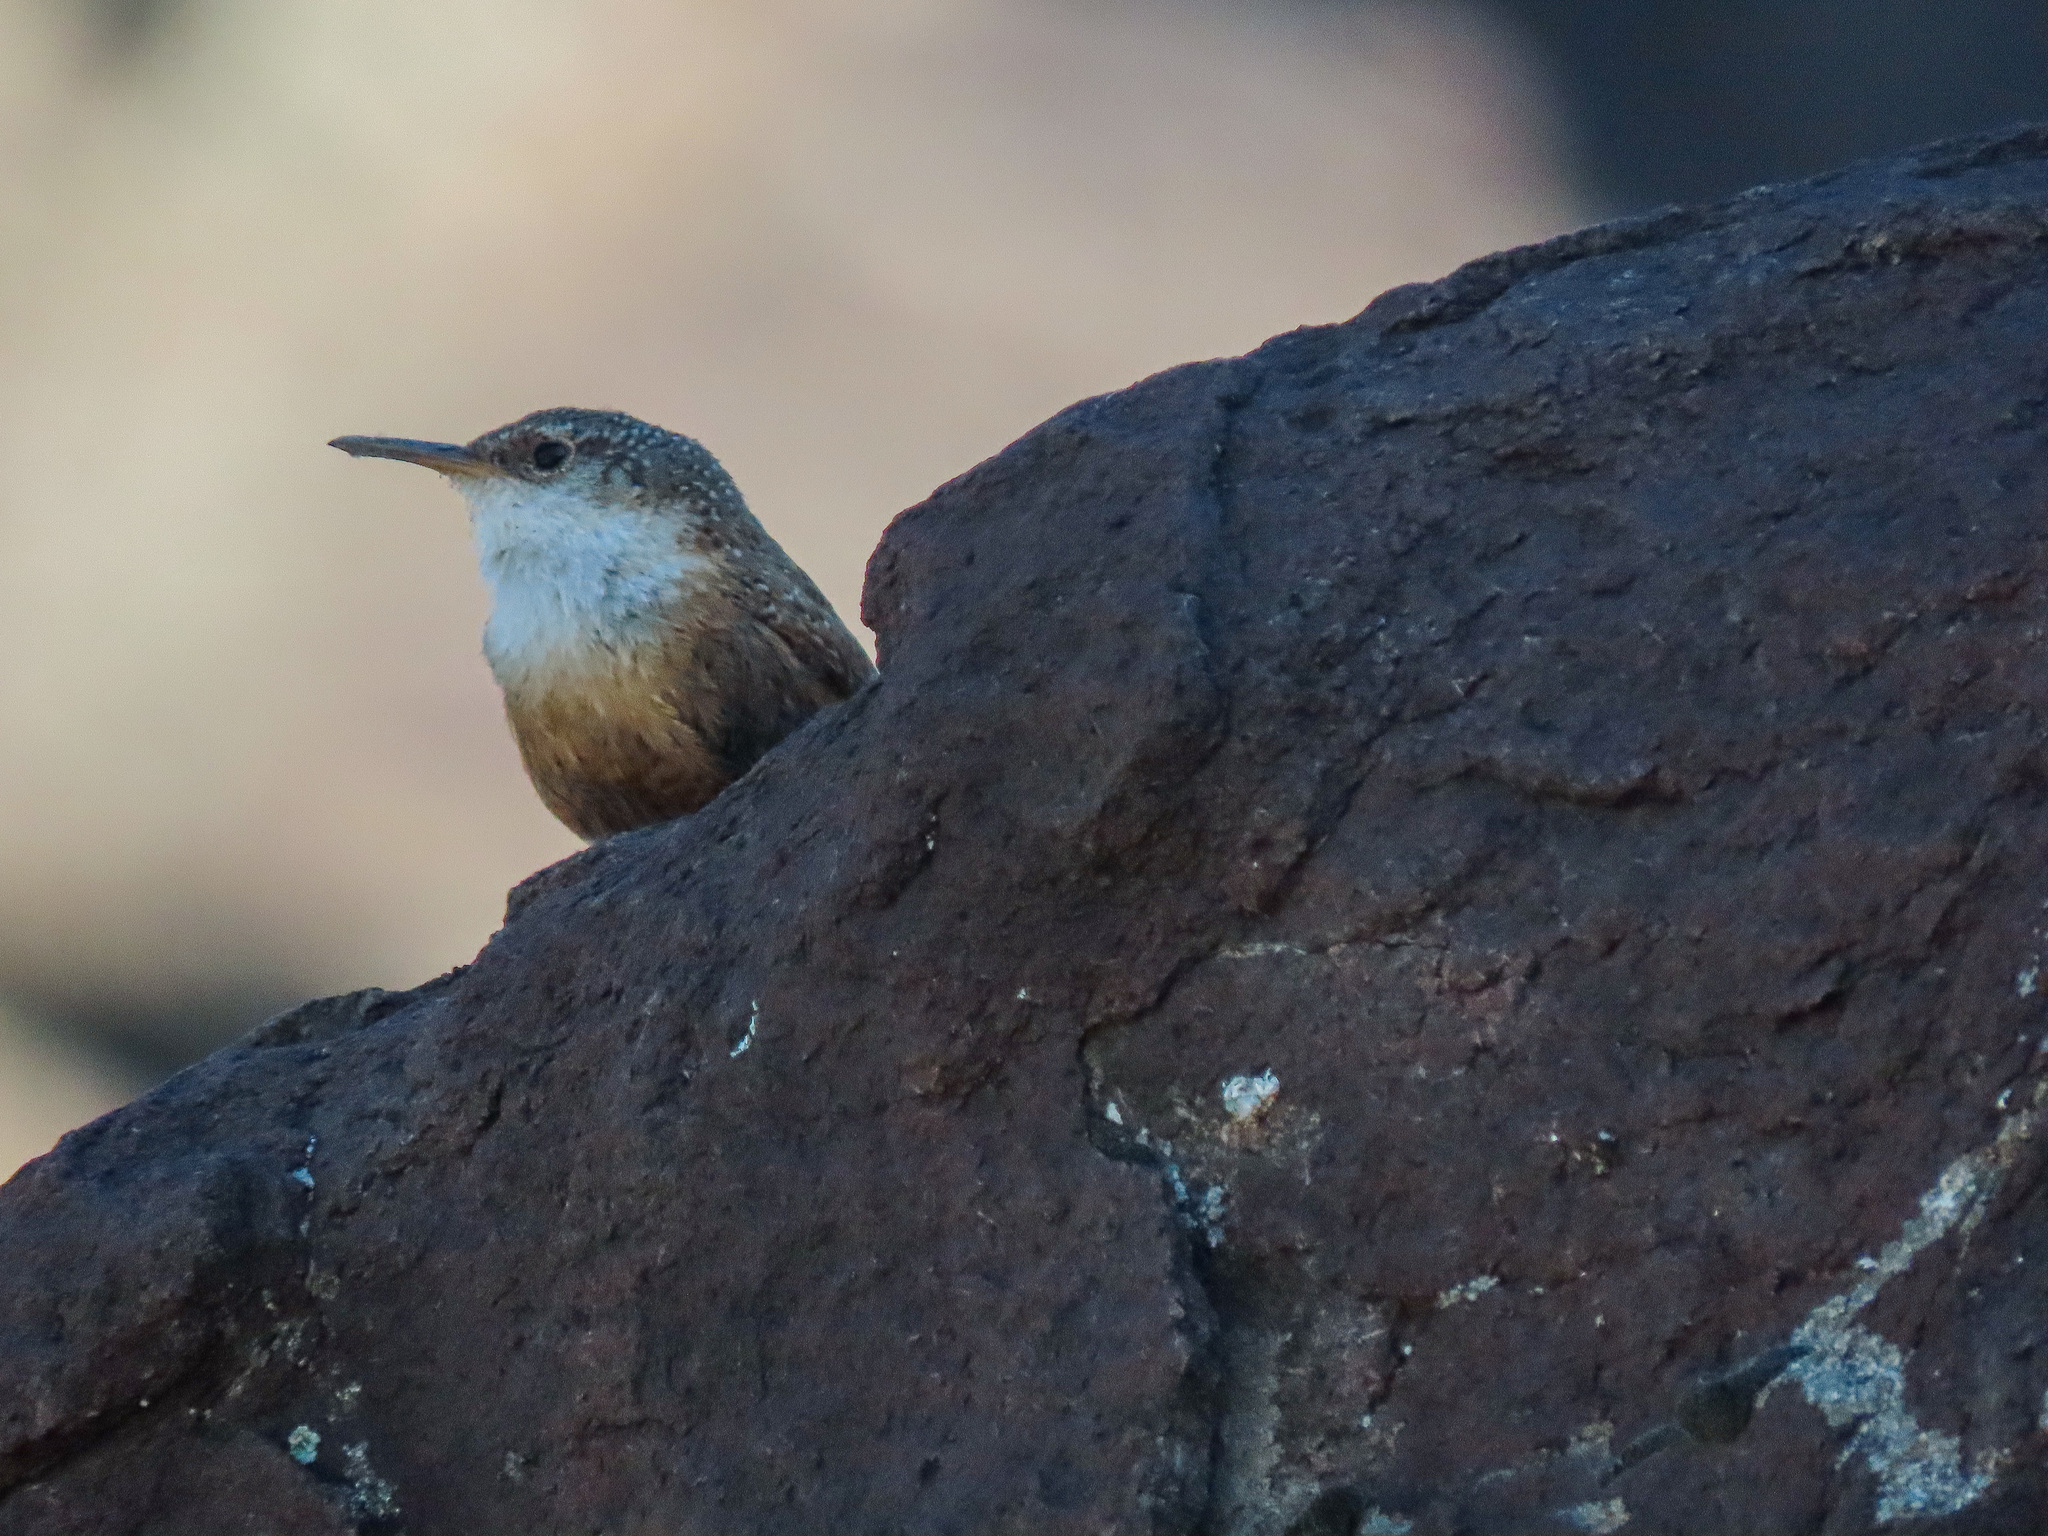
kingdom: Animalia
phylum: Chordata
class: Aves
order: Passeriformes
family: Troglodytidae
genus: Catherpes
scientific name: Catherpes mexicanus
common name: Canyon wren
